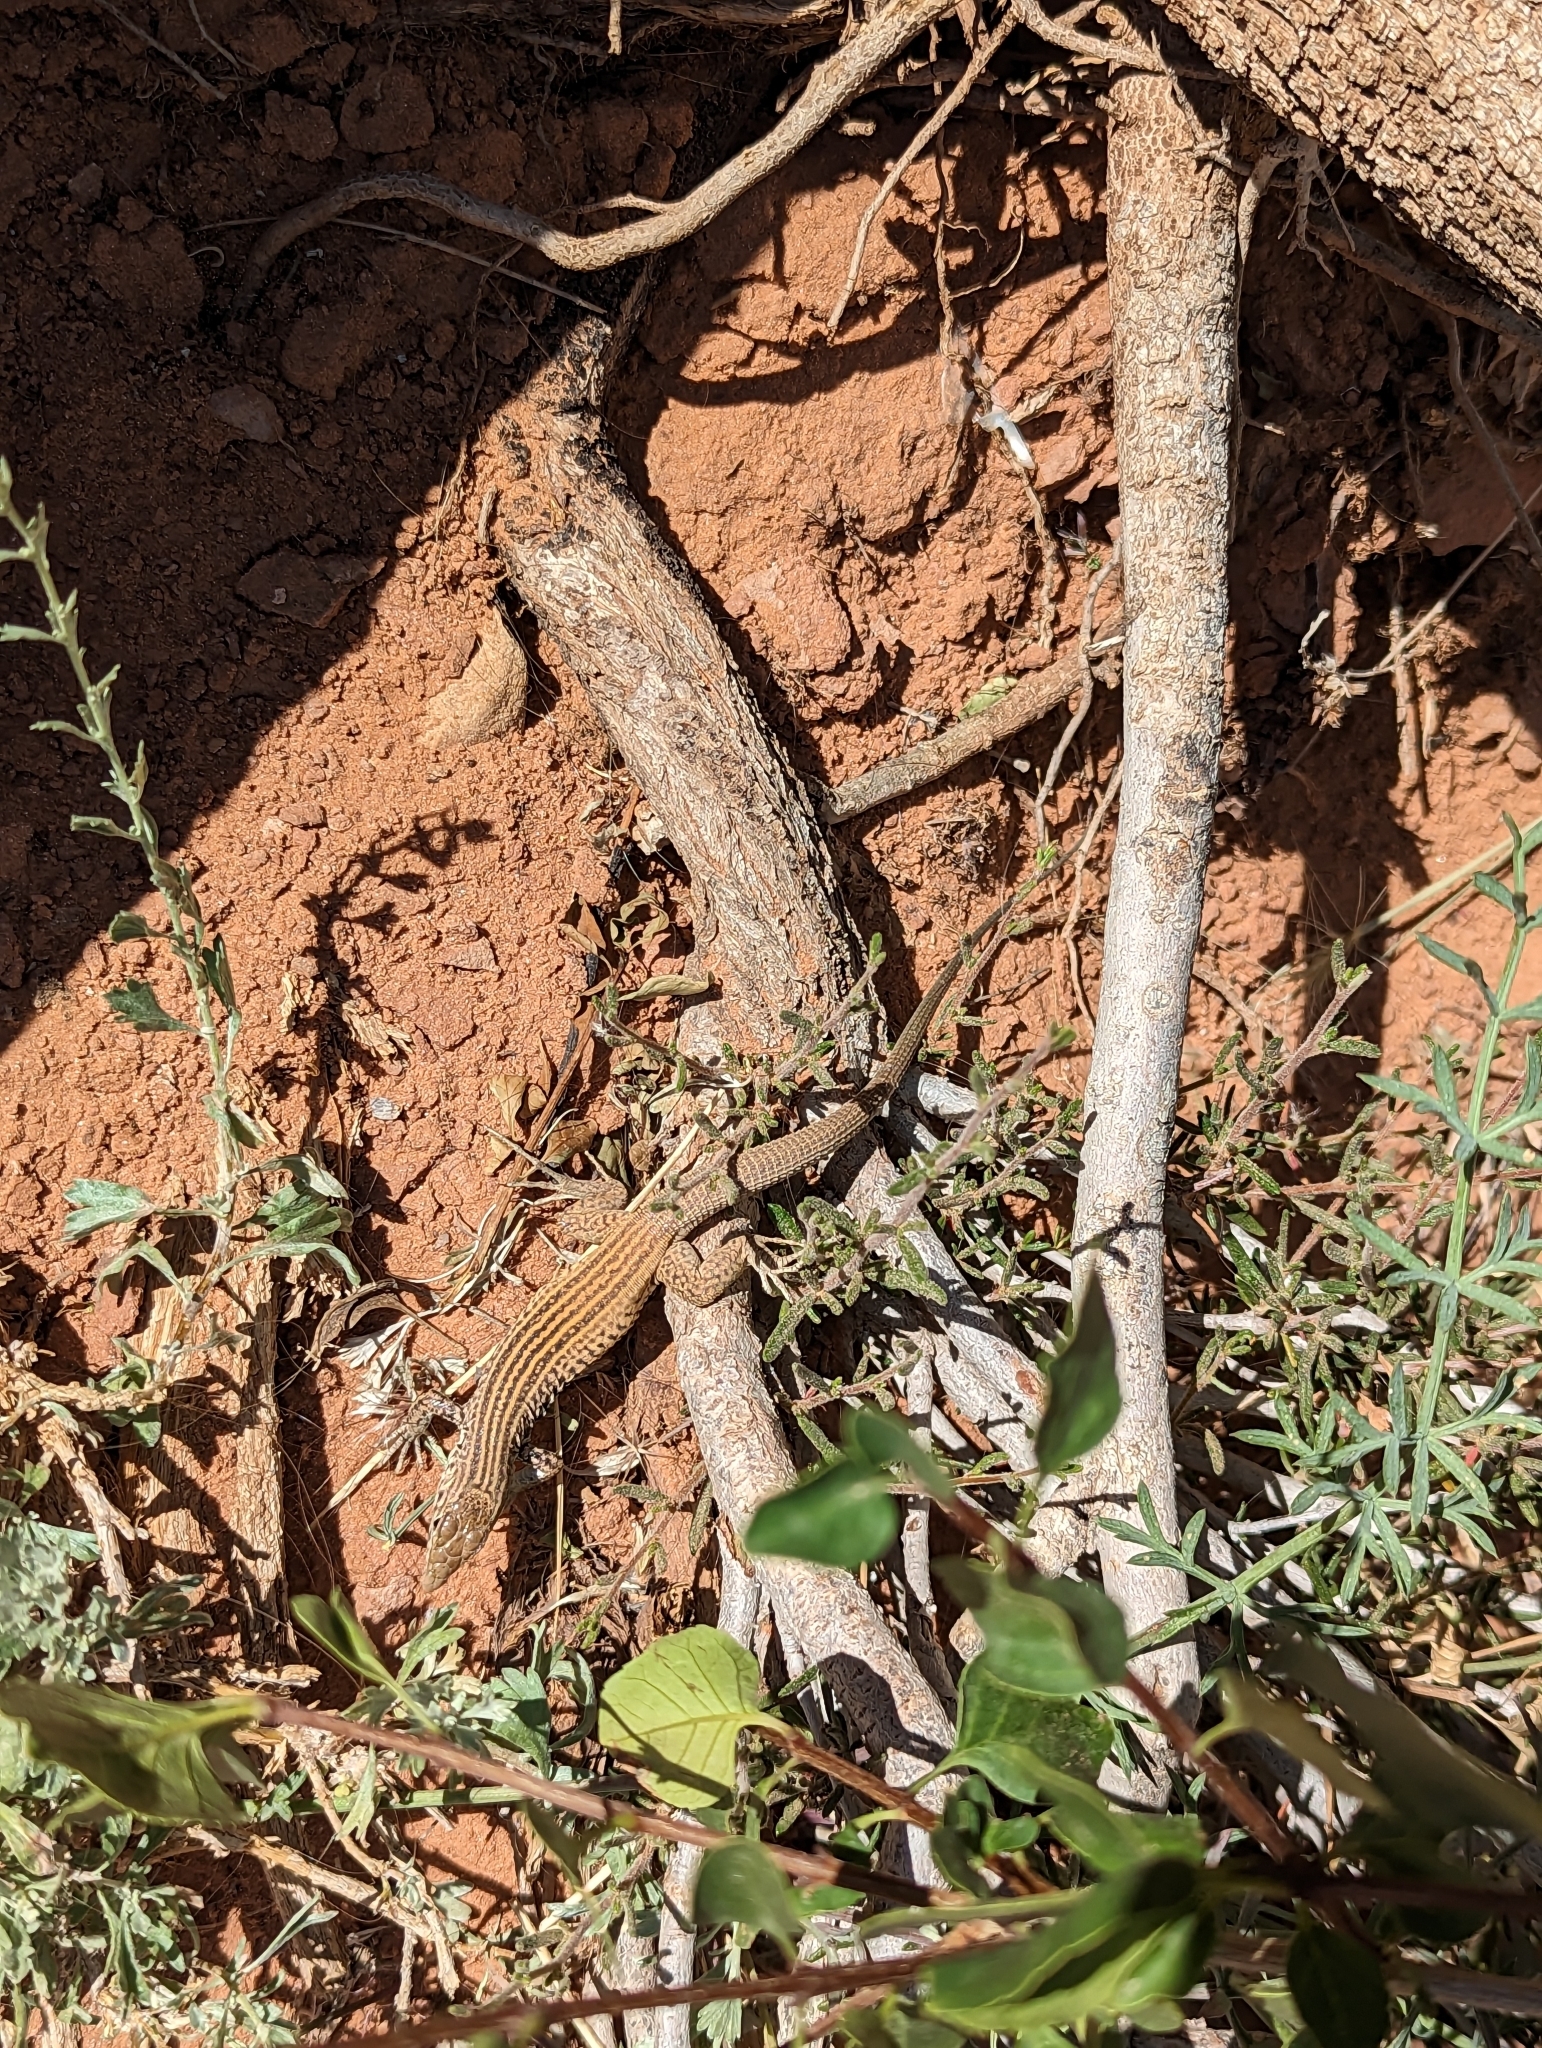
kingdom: Animalia
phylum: Chordata
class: Squamata
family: Teiidae
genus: Aspidoscelis
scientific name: Aspidoscelis tigris
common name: Tiger whiptail
